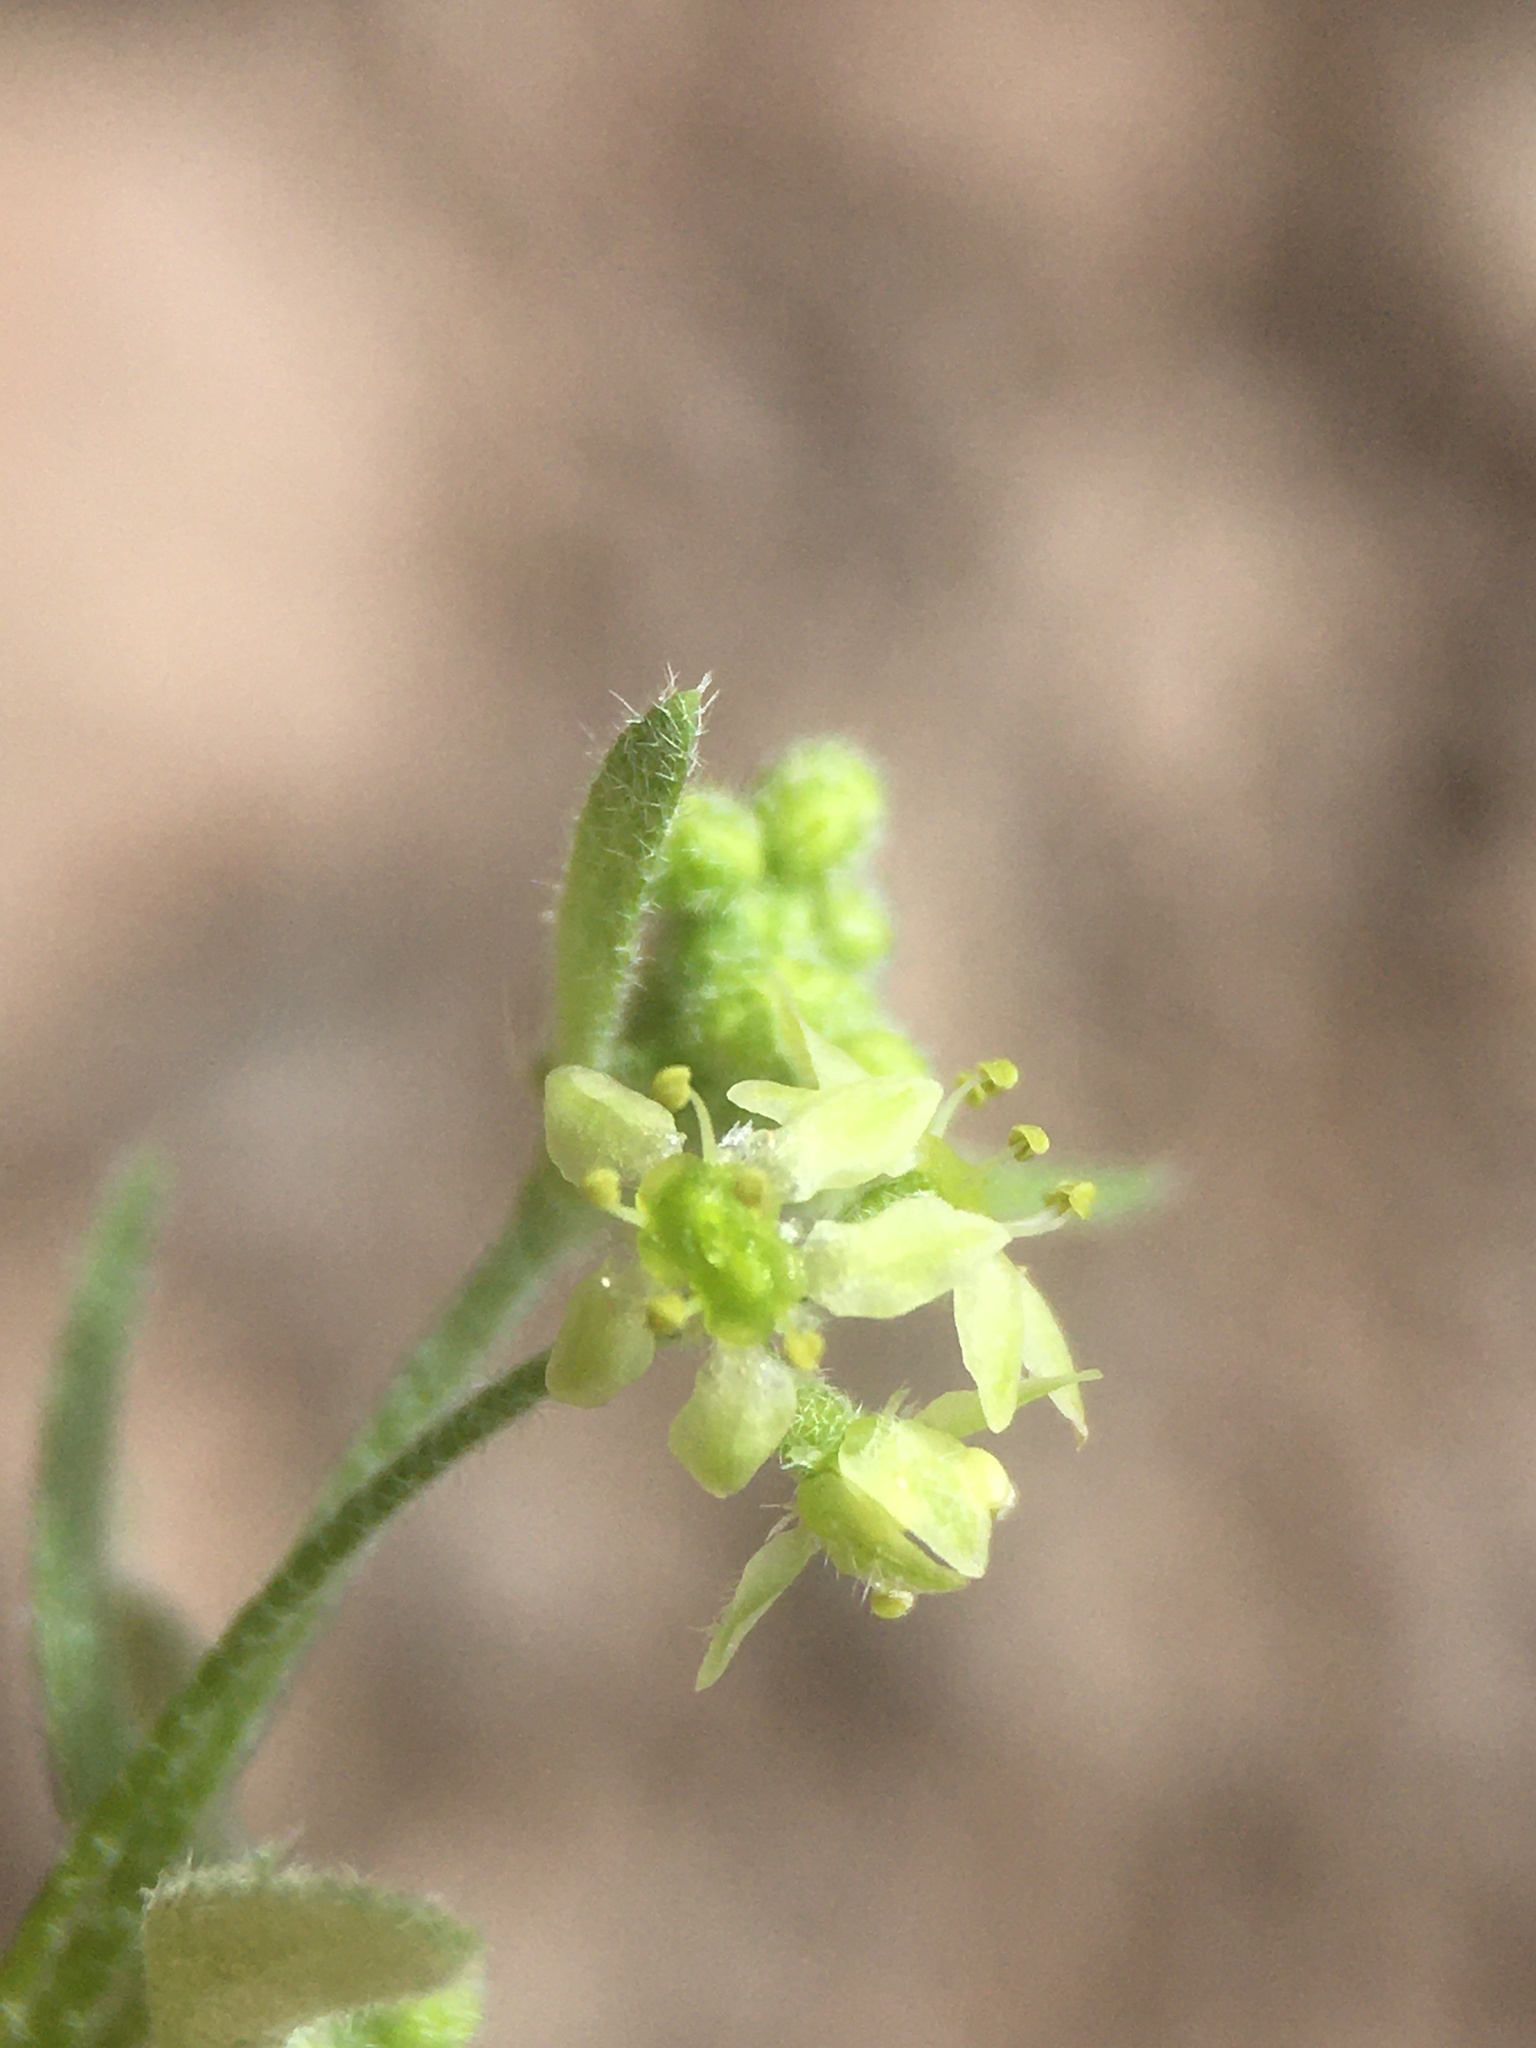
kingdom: Plantae
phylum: Tracheophyta
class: Magnoliopsida
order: Apiales
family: Apiaceae
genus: Bowlesia
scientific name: Bowlesia tropaeolifolia
